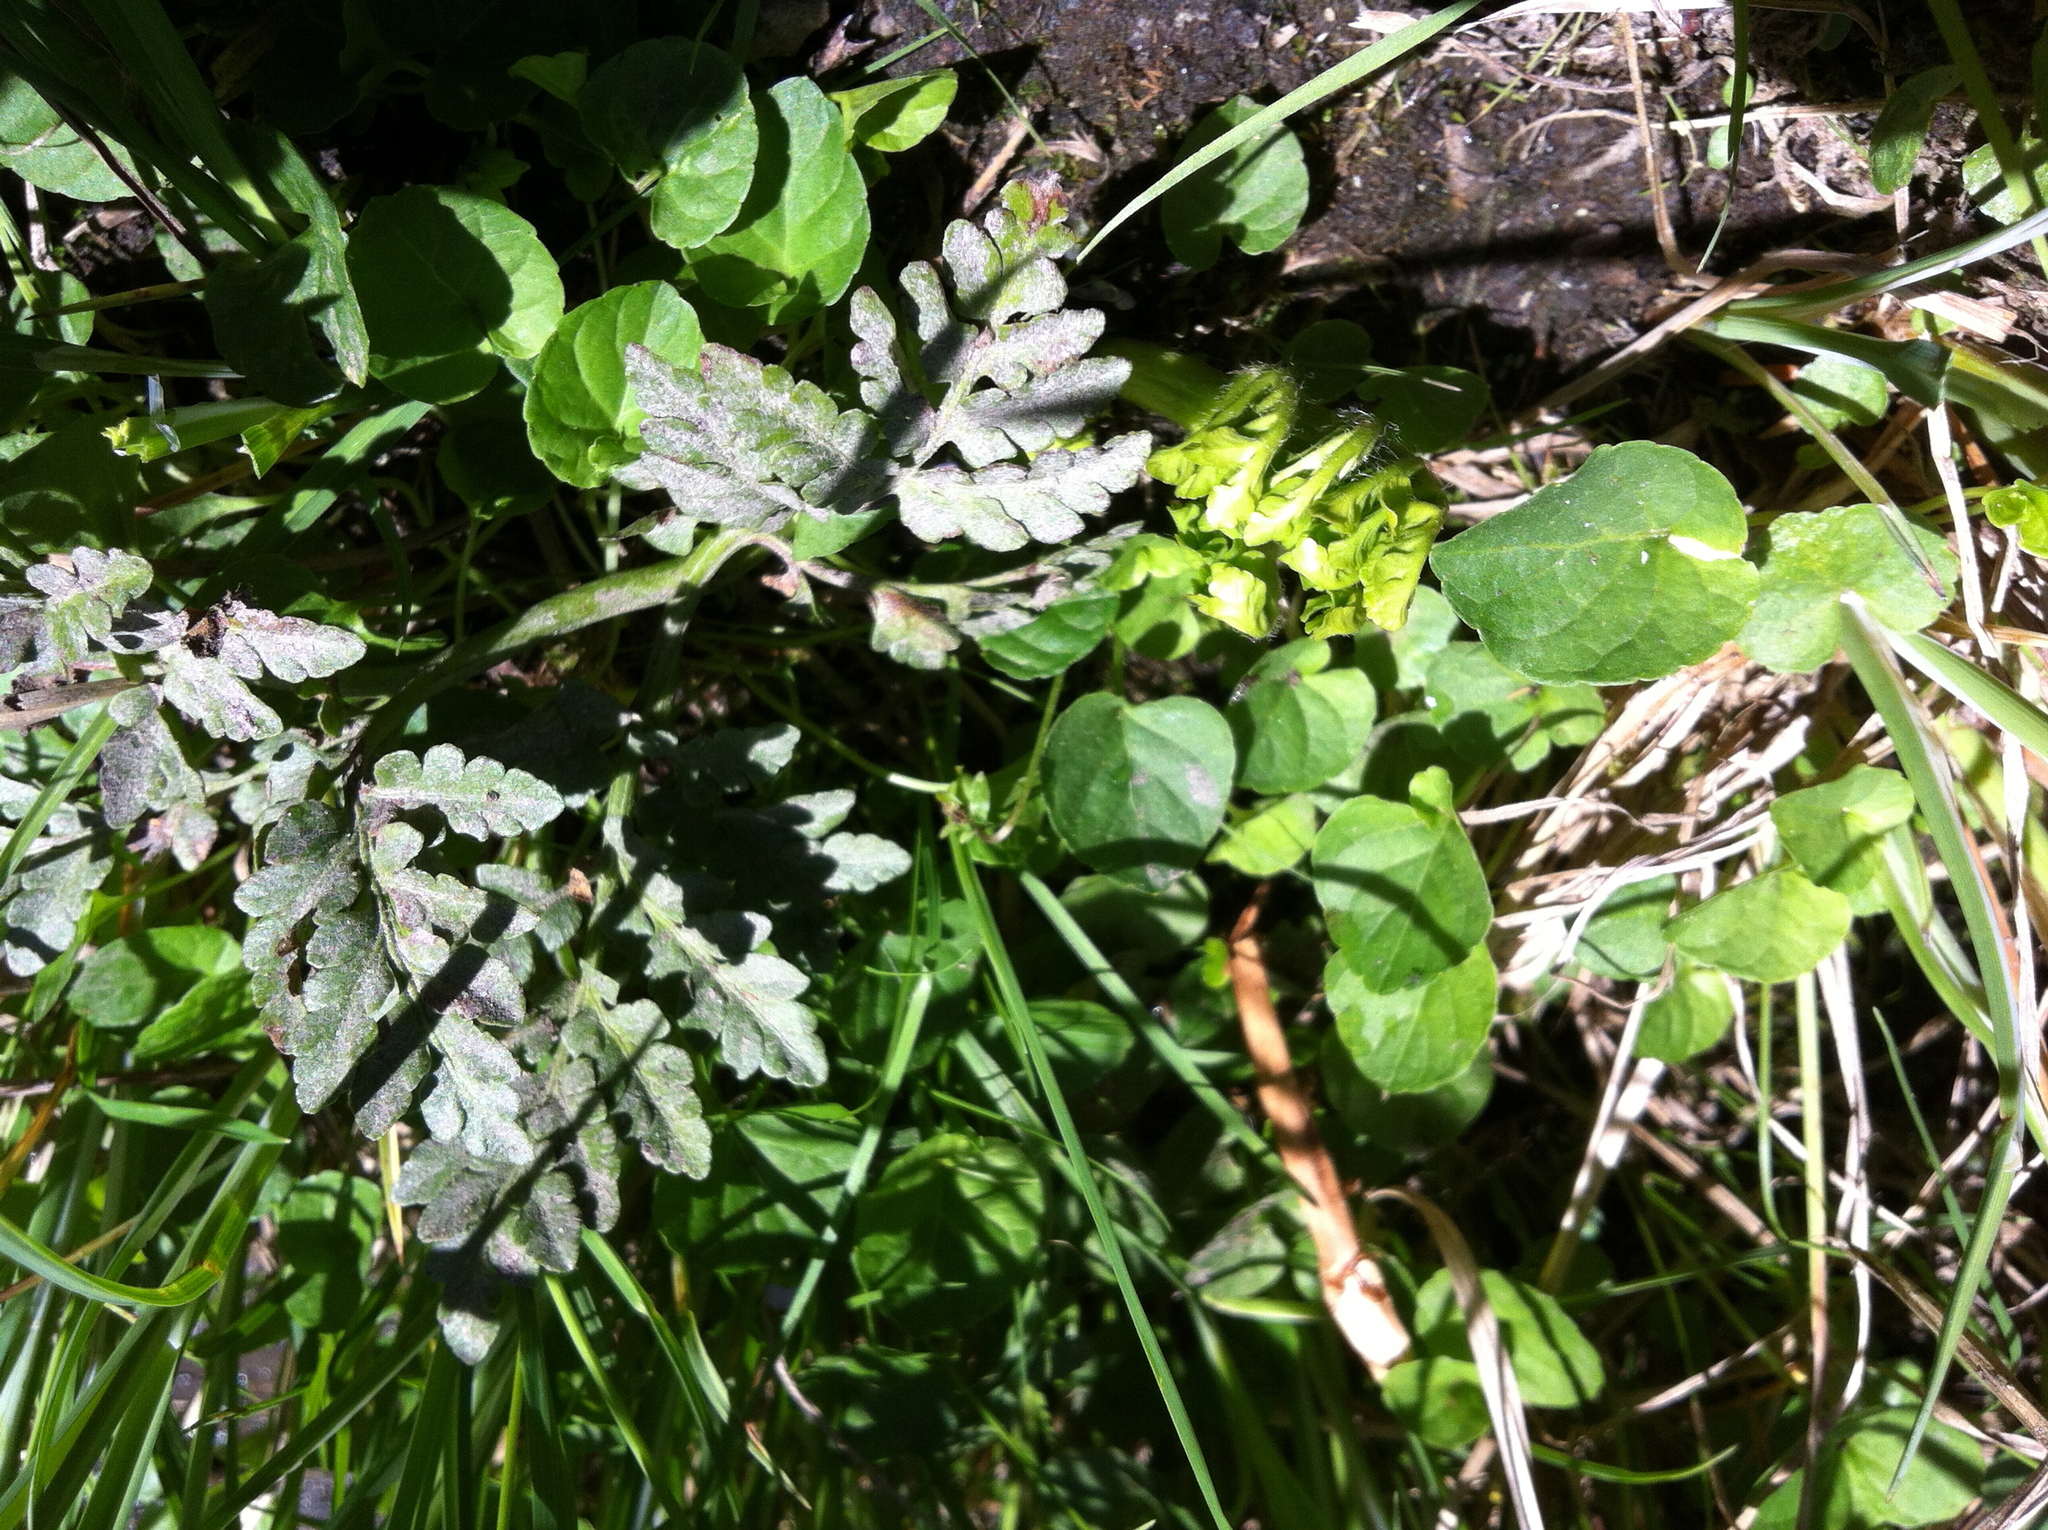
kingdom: Plantae
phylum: Tracheophyta
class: Polypodiopsida
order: Ophioglossales
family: Ophioglossaceae
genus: Sceptridium
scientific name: Sceptridium multifidum
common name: Leathery grape fern
